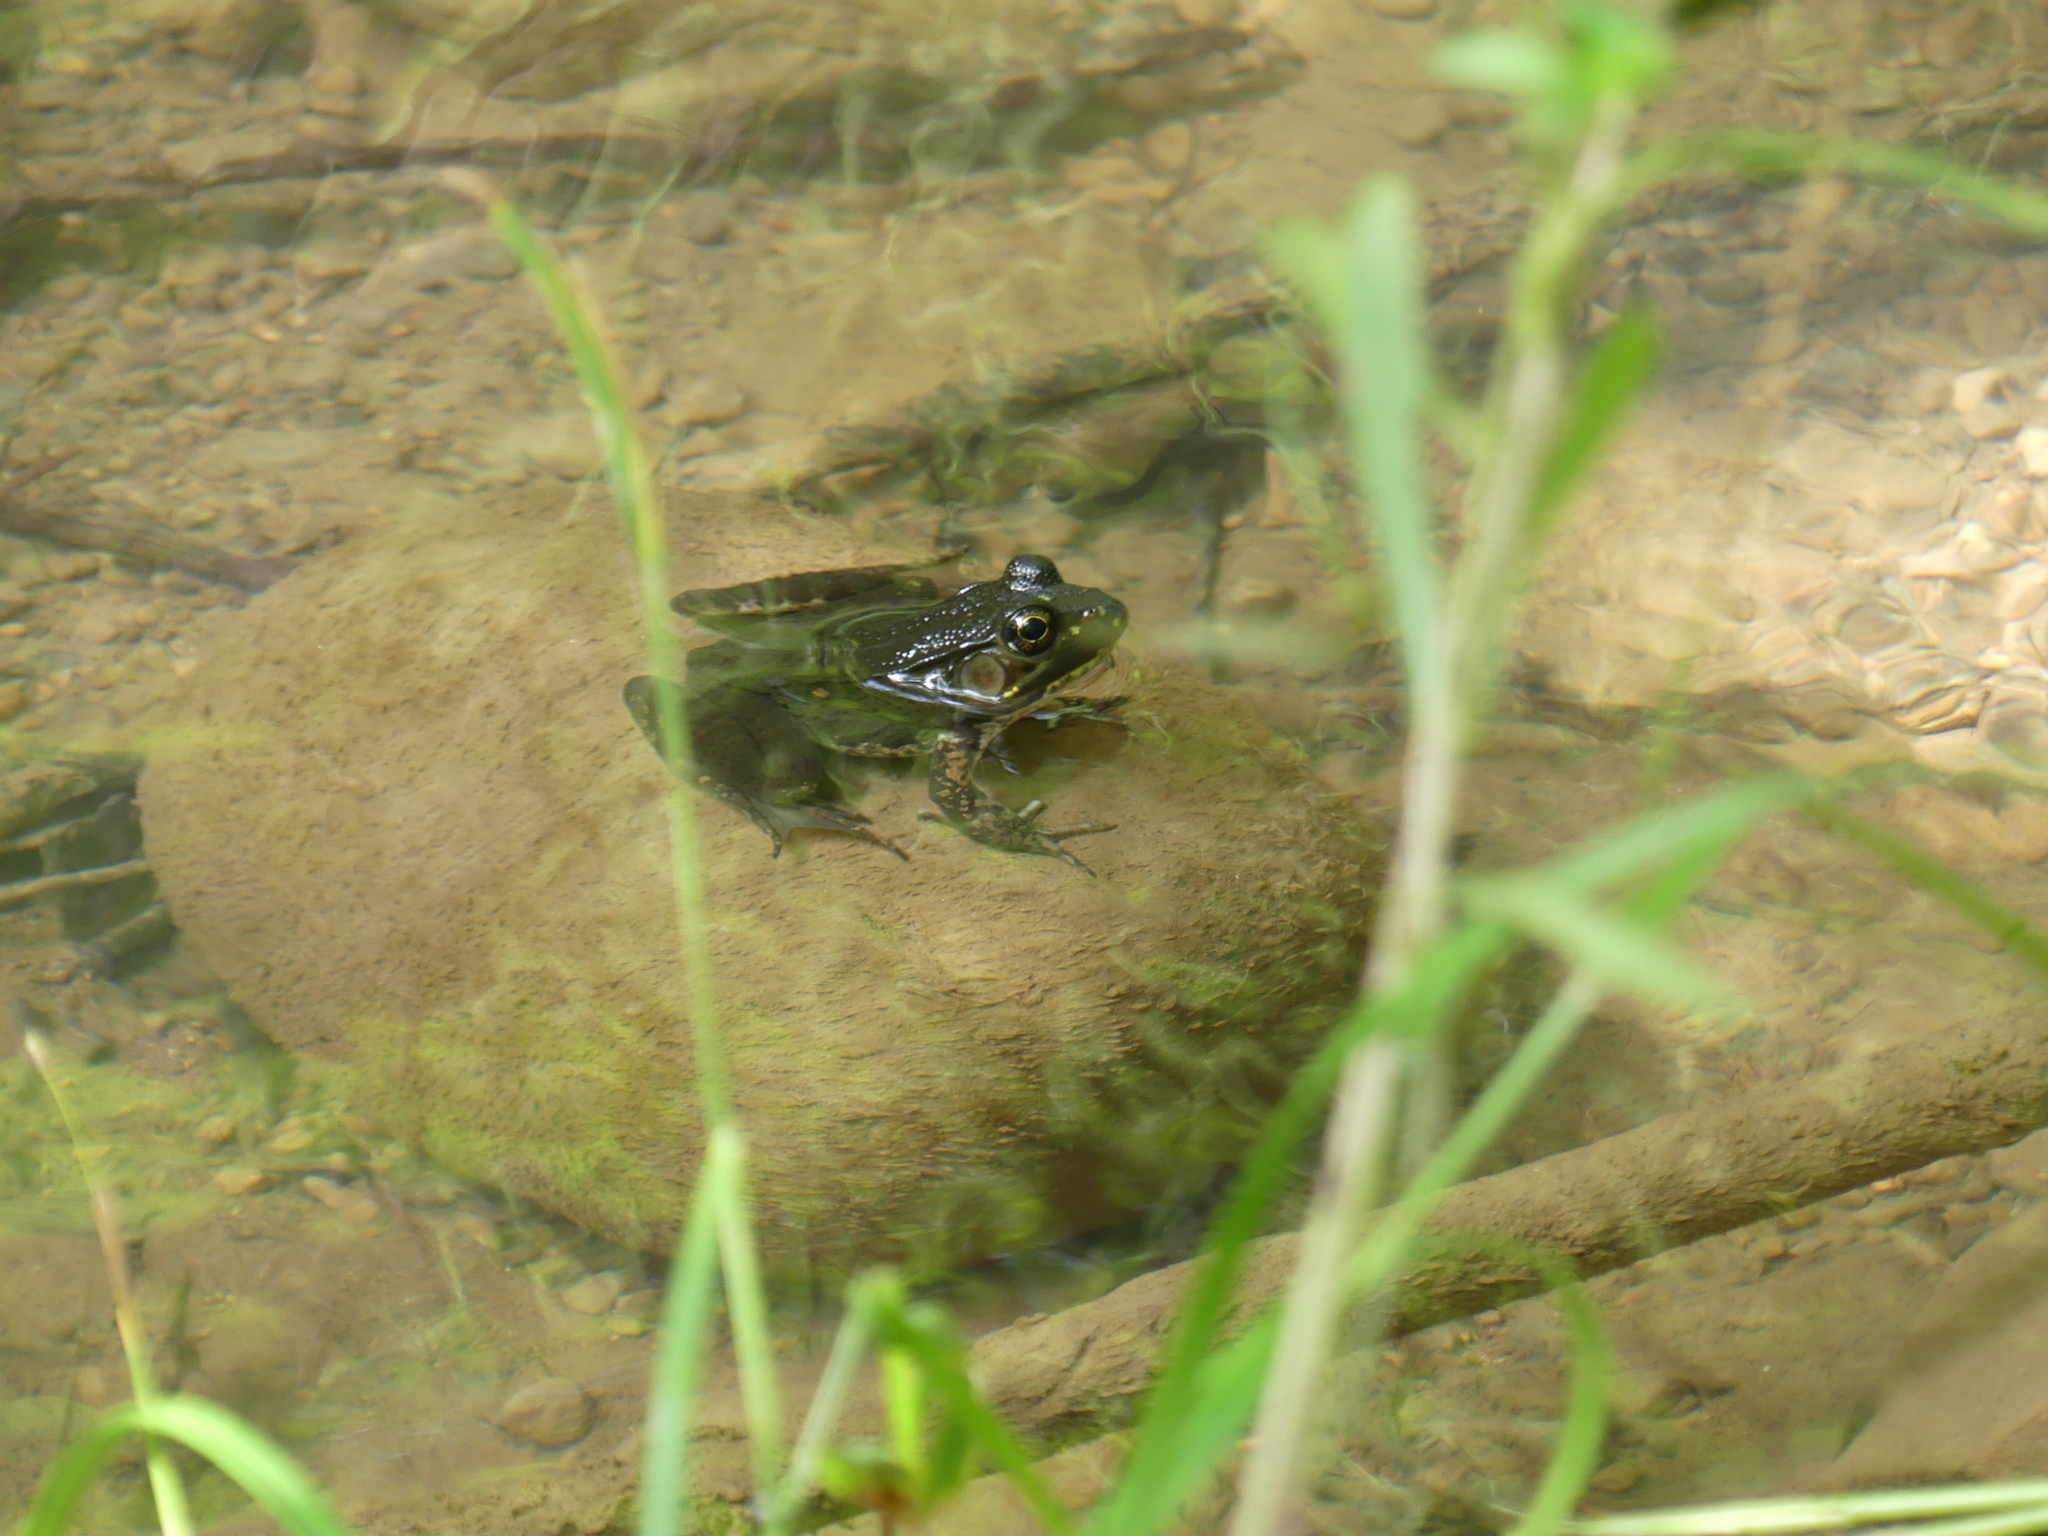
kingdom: Animalia
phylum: Chordata
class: Amphibia
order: Anura
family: Ranidae
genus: Lithobates
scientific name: Lithobates clamitans
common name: Green frog
